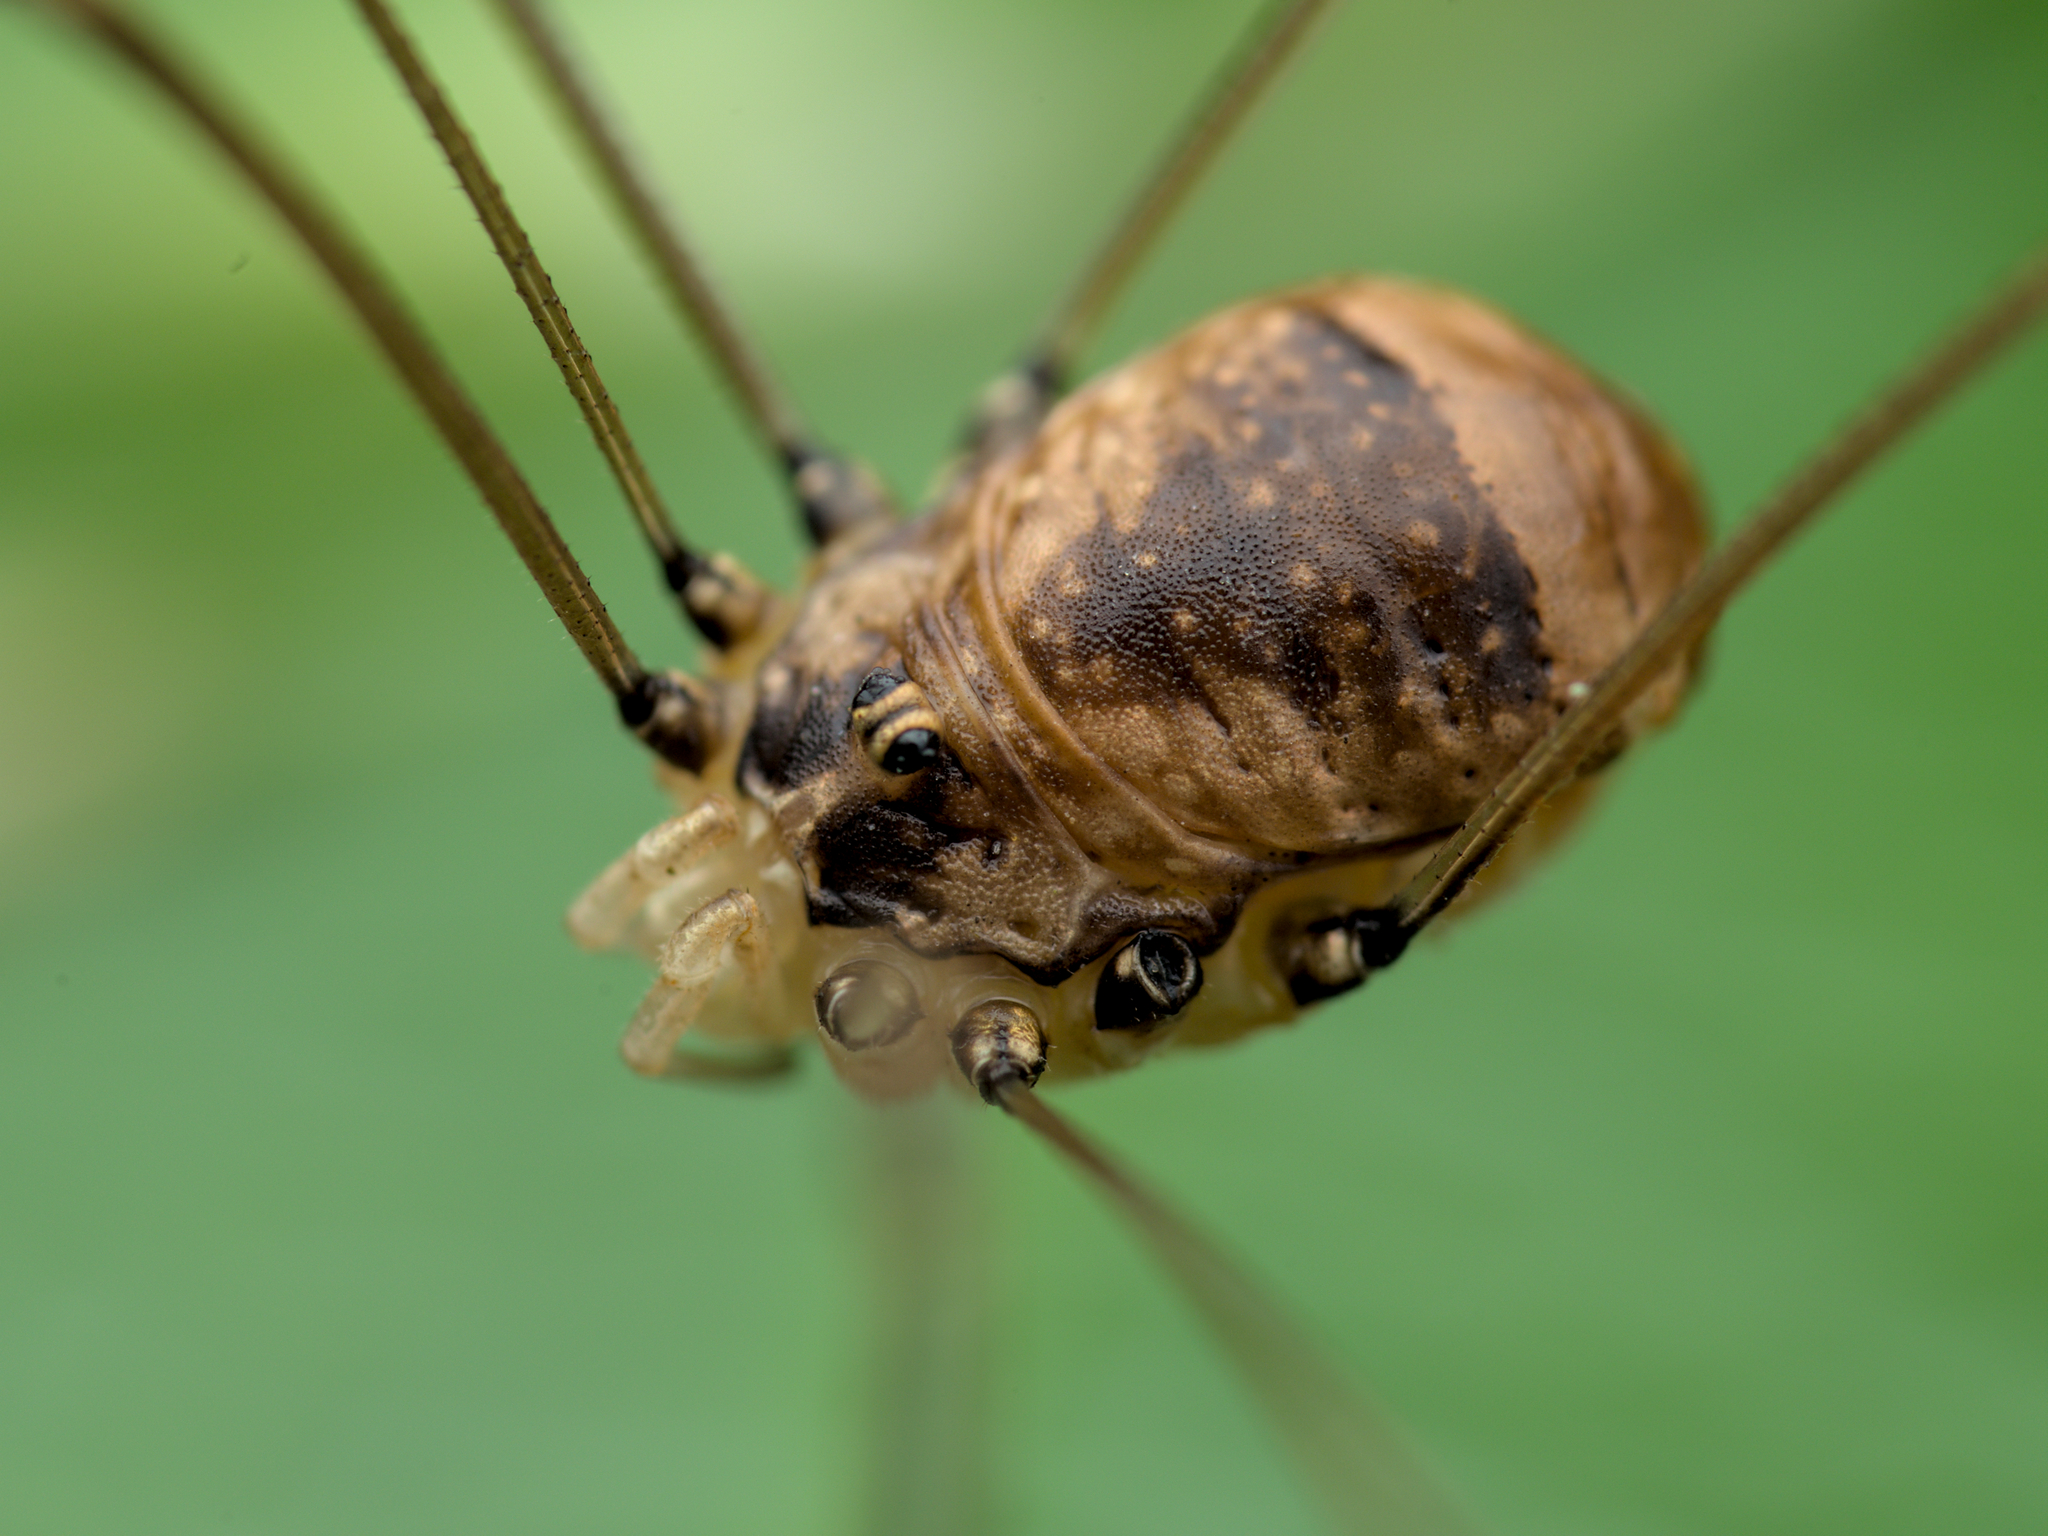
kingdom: Animalia
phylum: Arthropoda
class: Arachnida
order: Opiliones
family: Sclerosomatidae
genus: Leiobunum
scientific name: Leiobunum blackwalli
